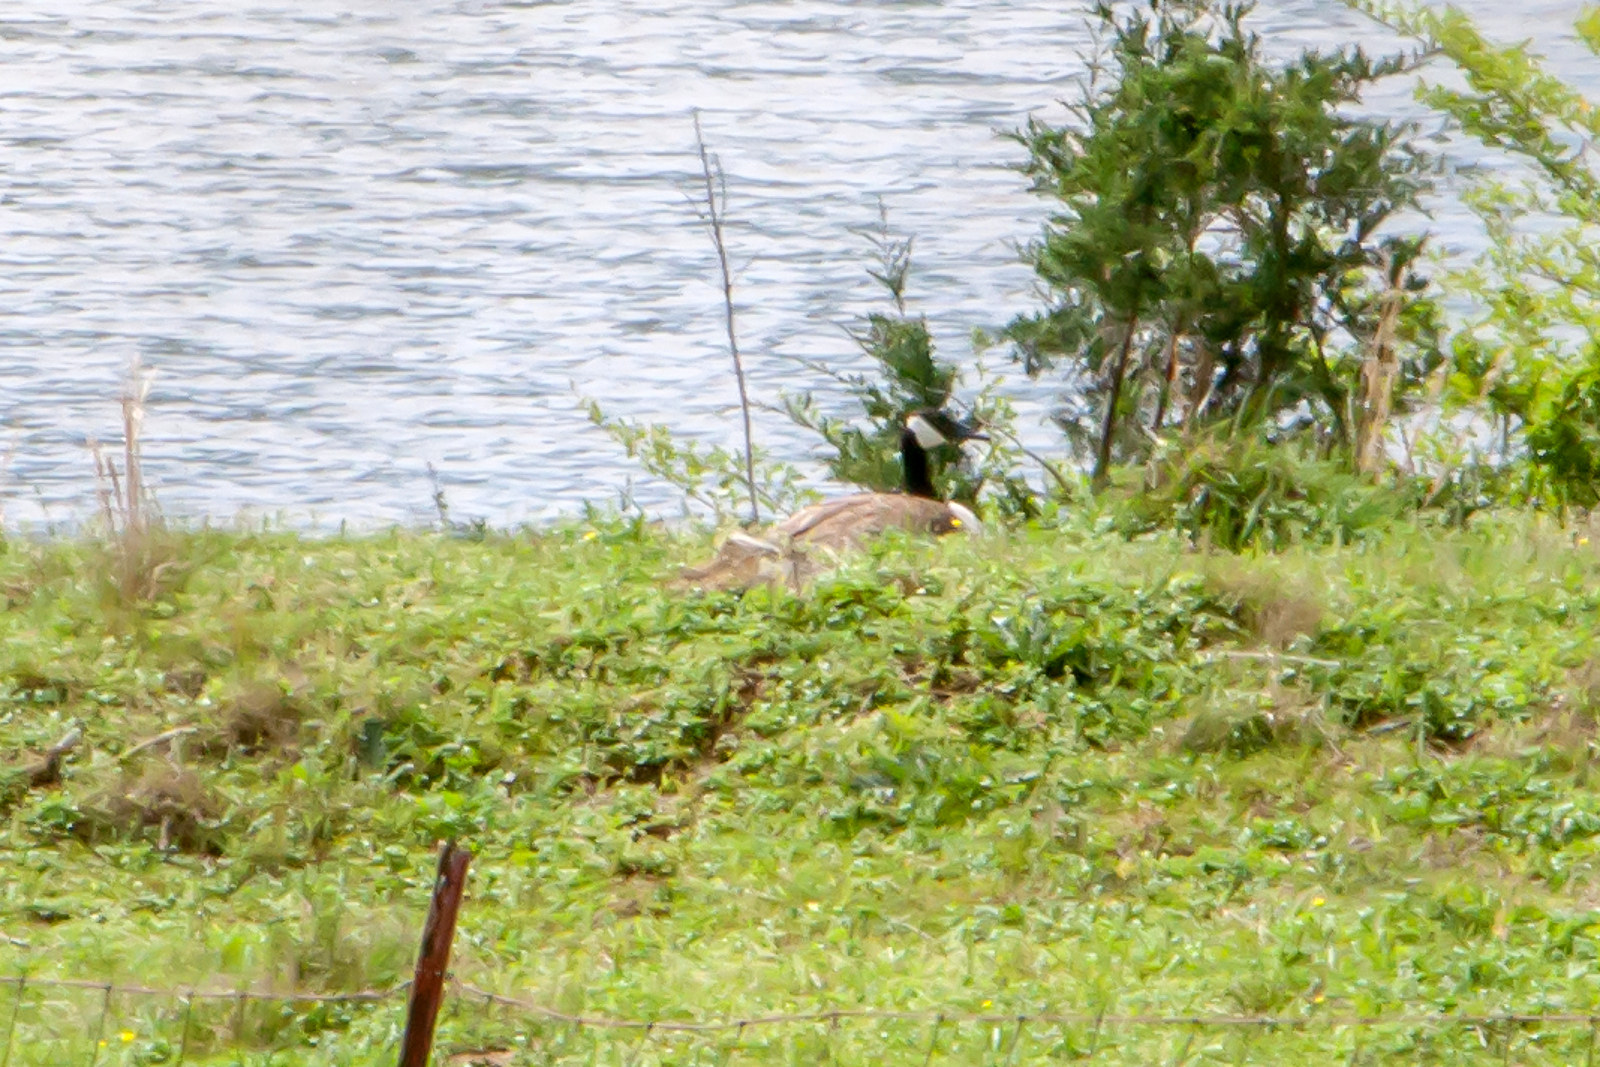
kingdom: Animalia
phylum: Chordata
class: Aves
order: Anseriformes
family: Anatidae
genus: Branta
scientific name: Branta canadensis
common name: Canada goose
